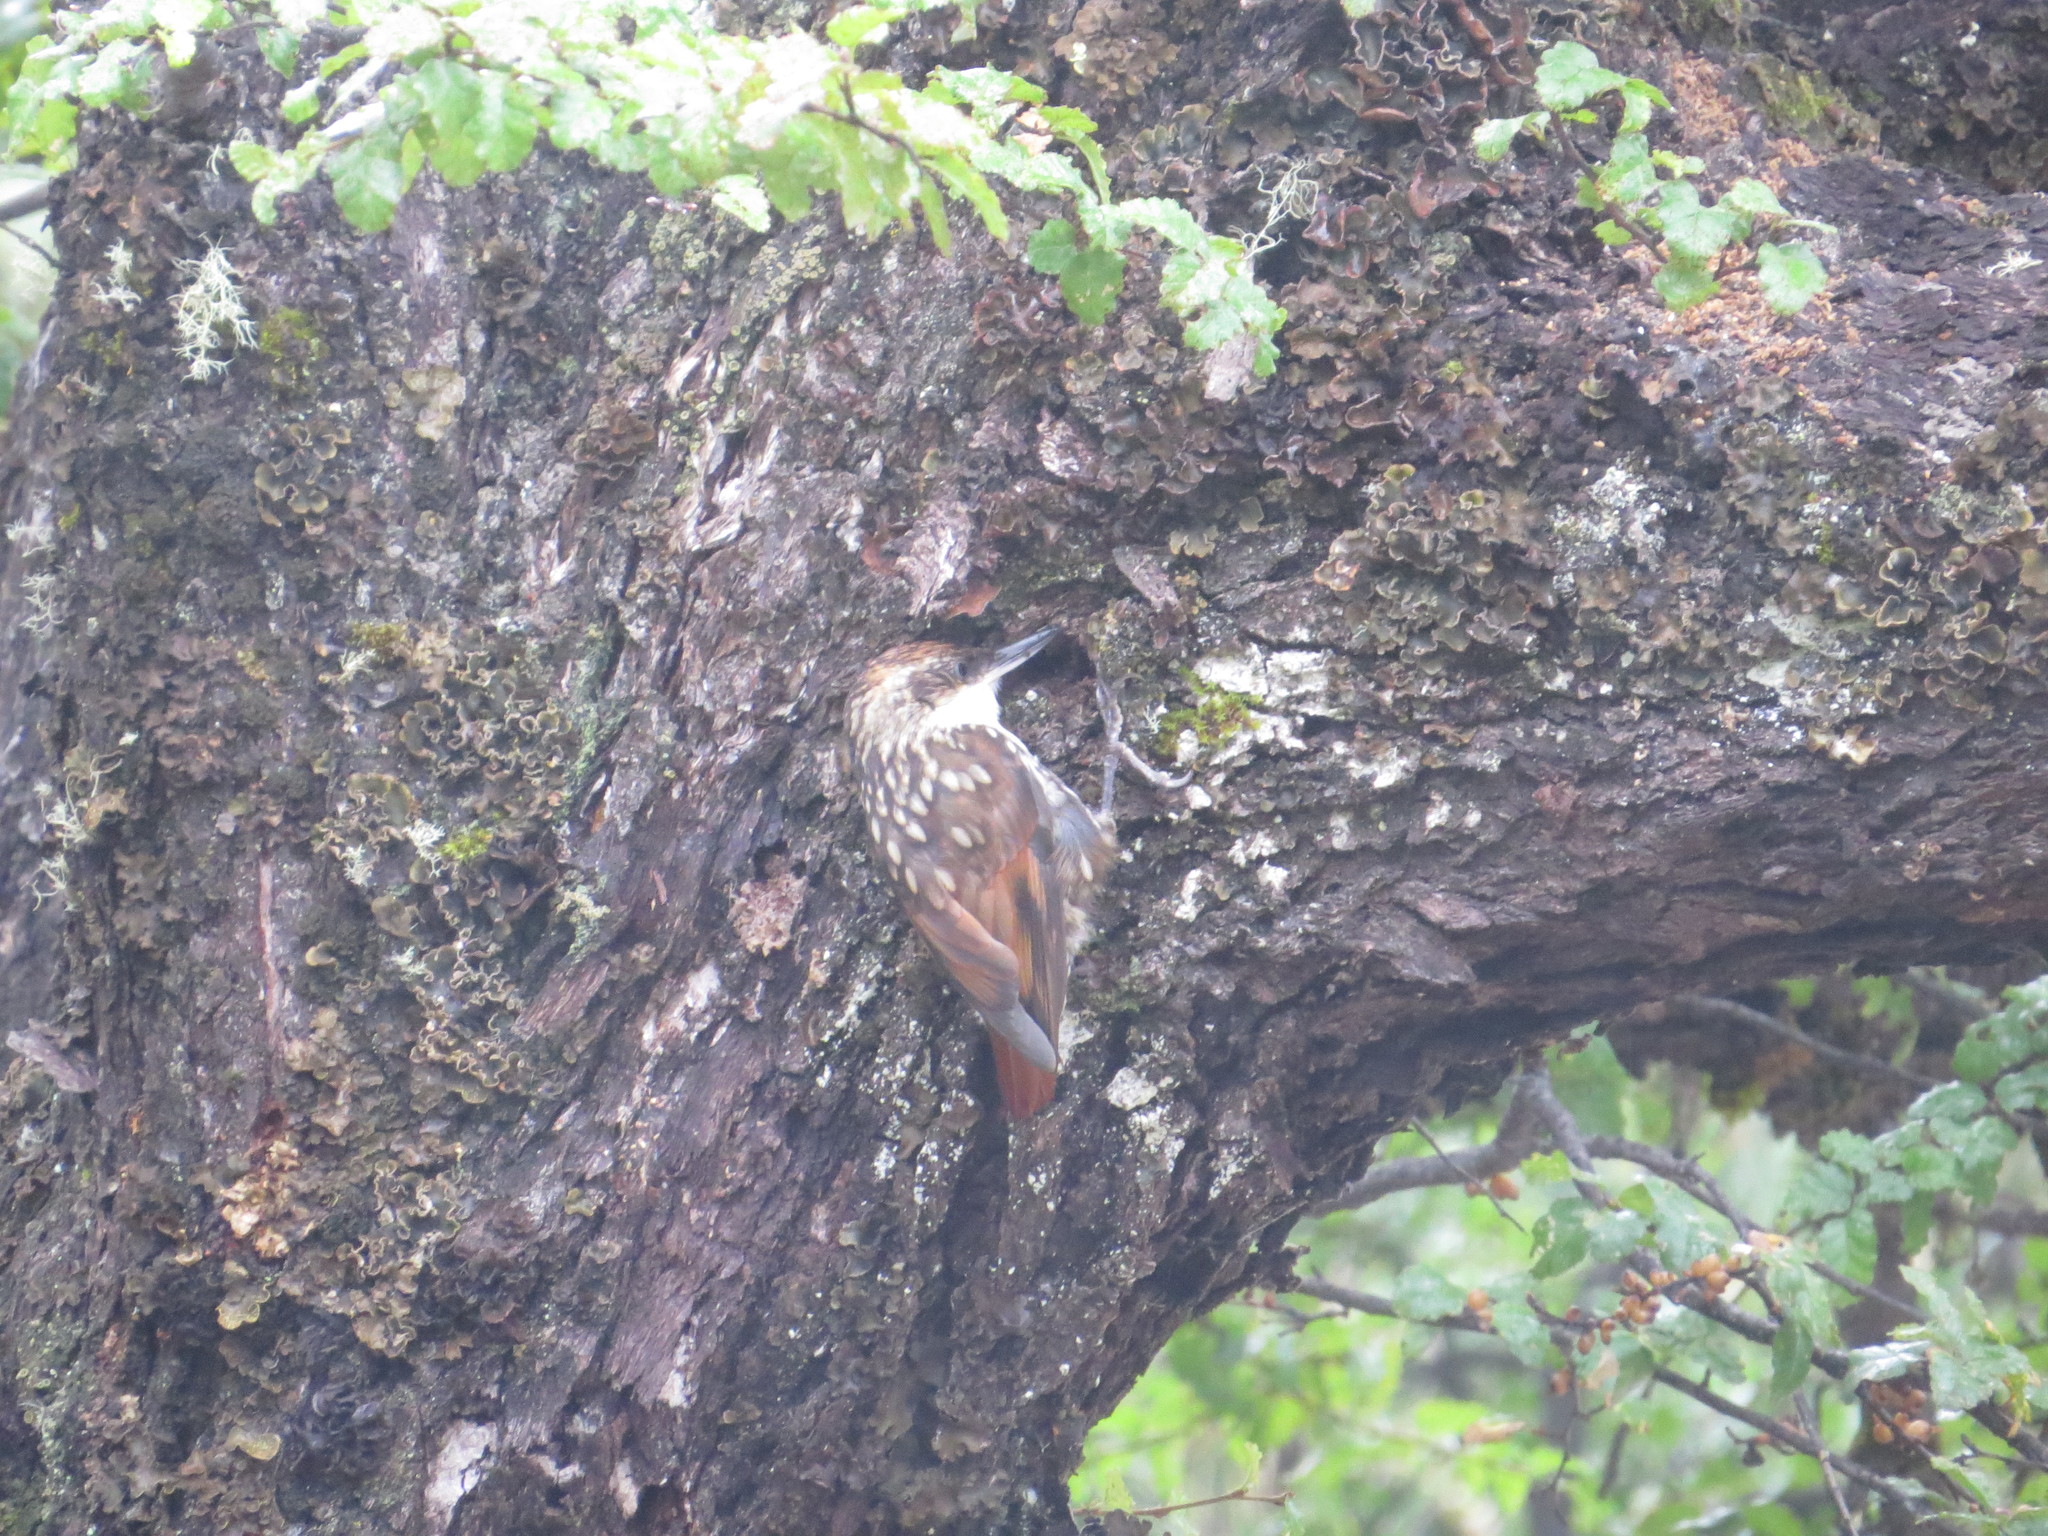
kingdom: Animalia
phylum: Chordata
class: Aves
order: Passeriformes
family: Furnariidae
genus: Pygarrhichas
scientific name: Pygarrhichas albogularis
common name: White-throated treerunner
